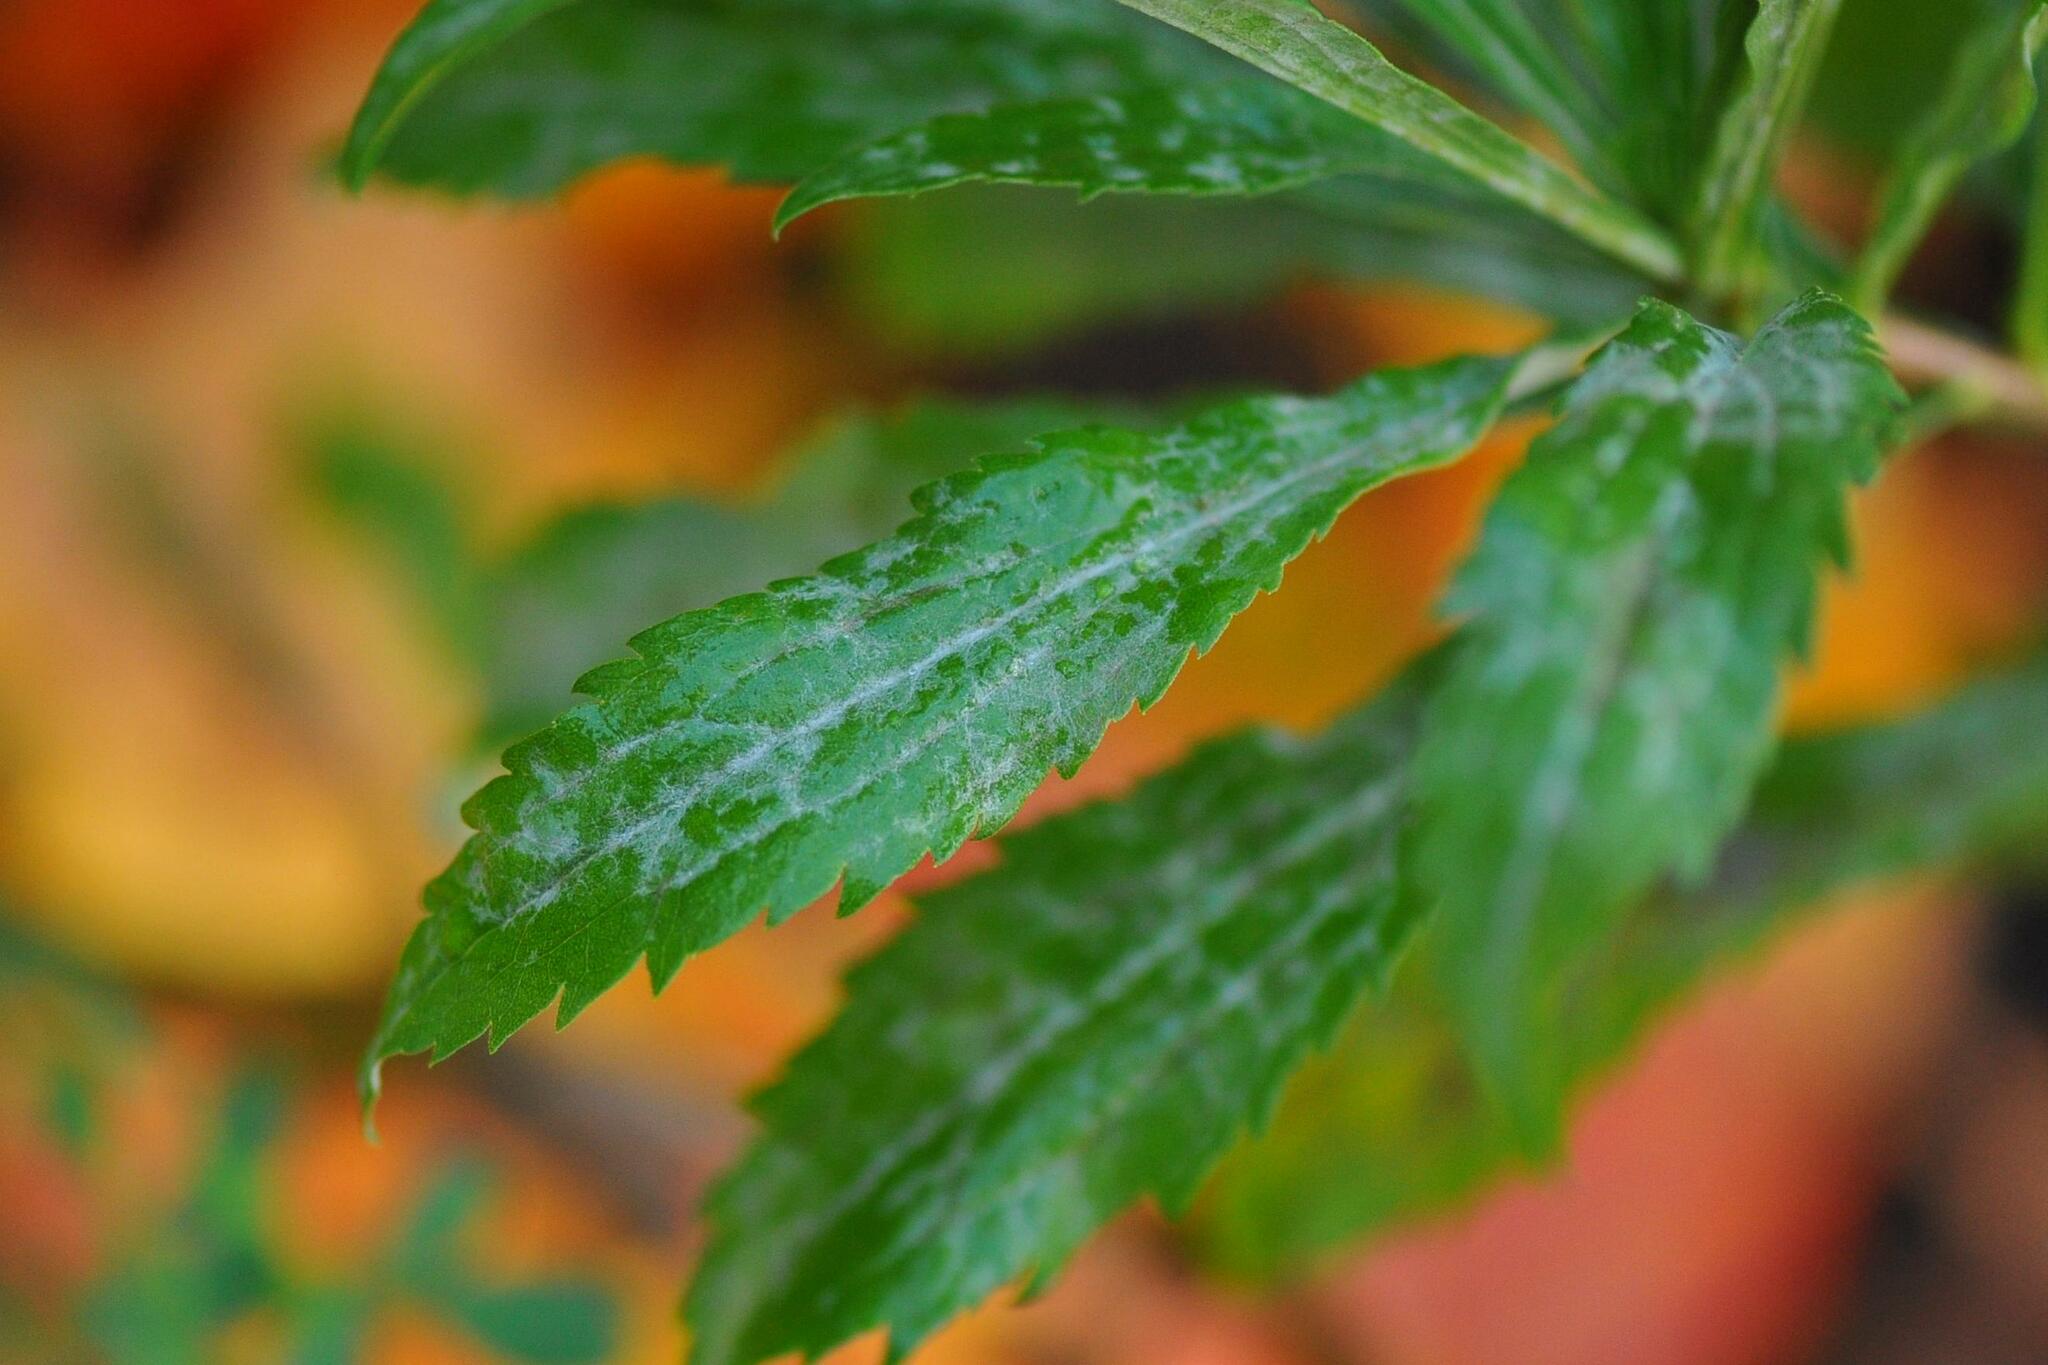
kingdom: Fungi
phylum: Ascomycota
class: Leotiomycetes
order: Helotiales
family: Erysiphaceae
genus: Golovinomyces
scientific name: Golovinomyces asterum
